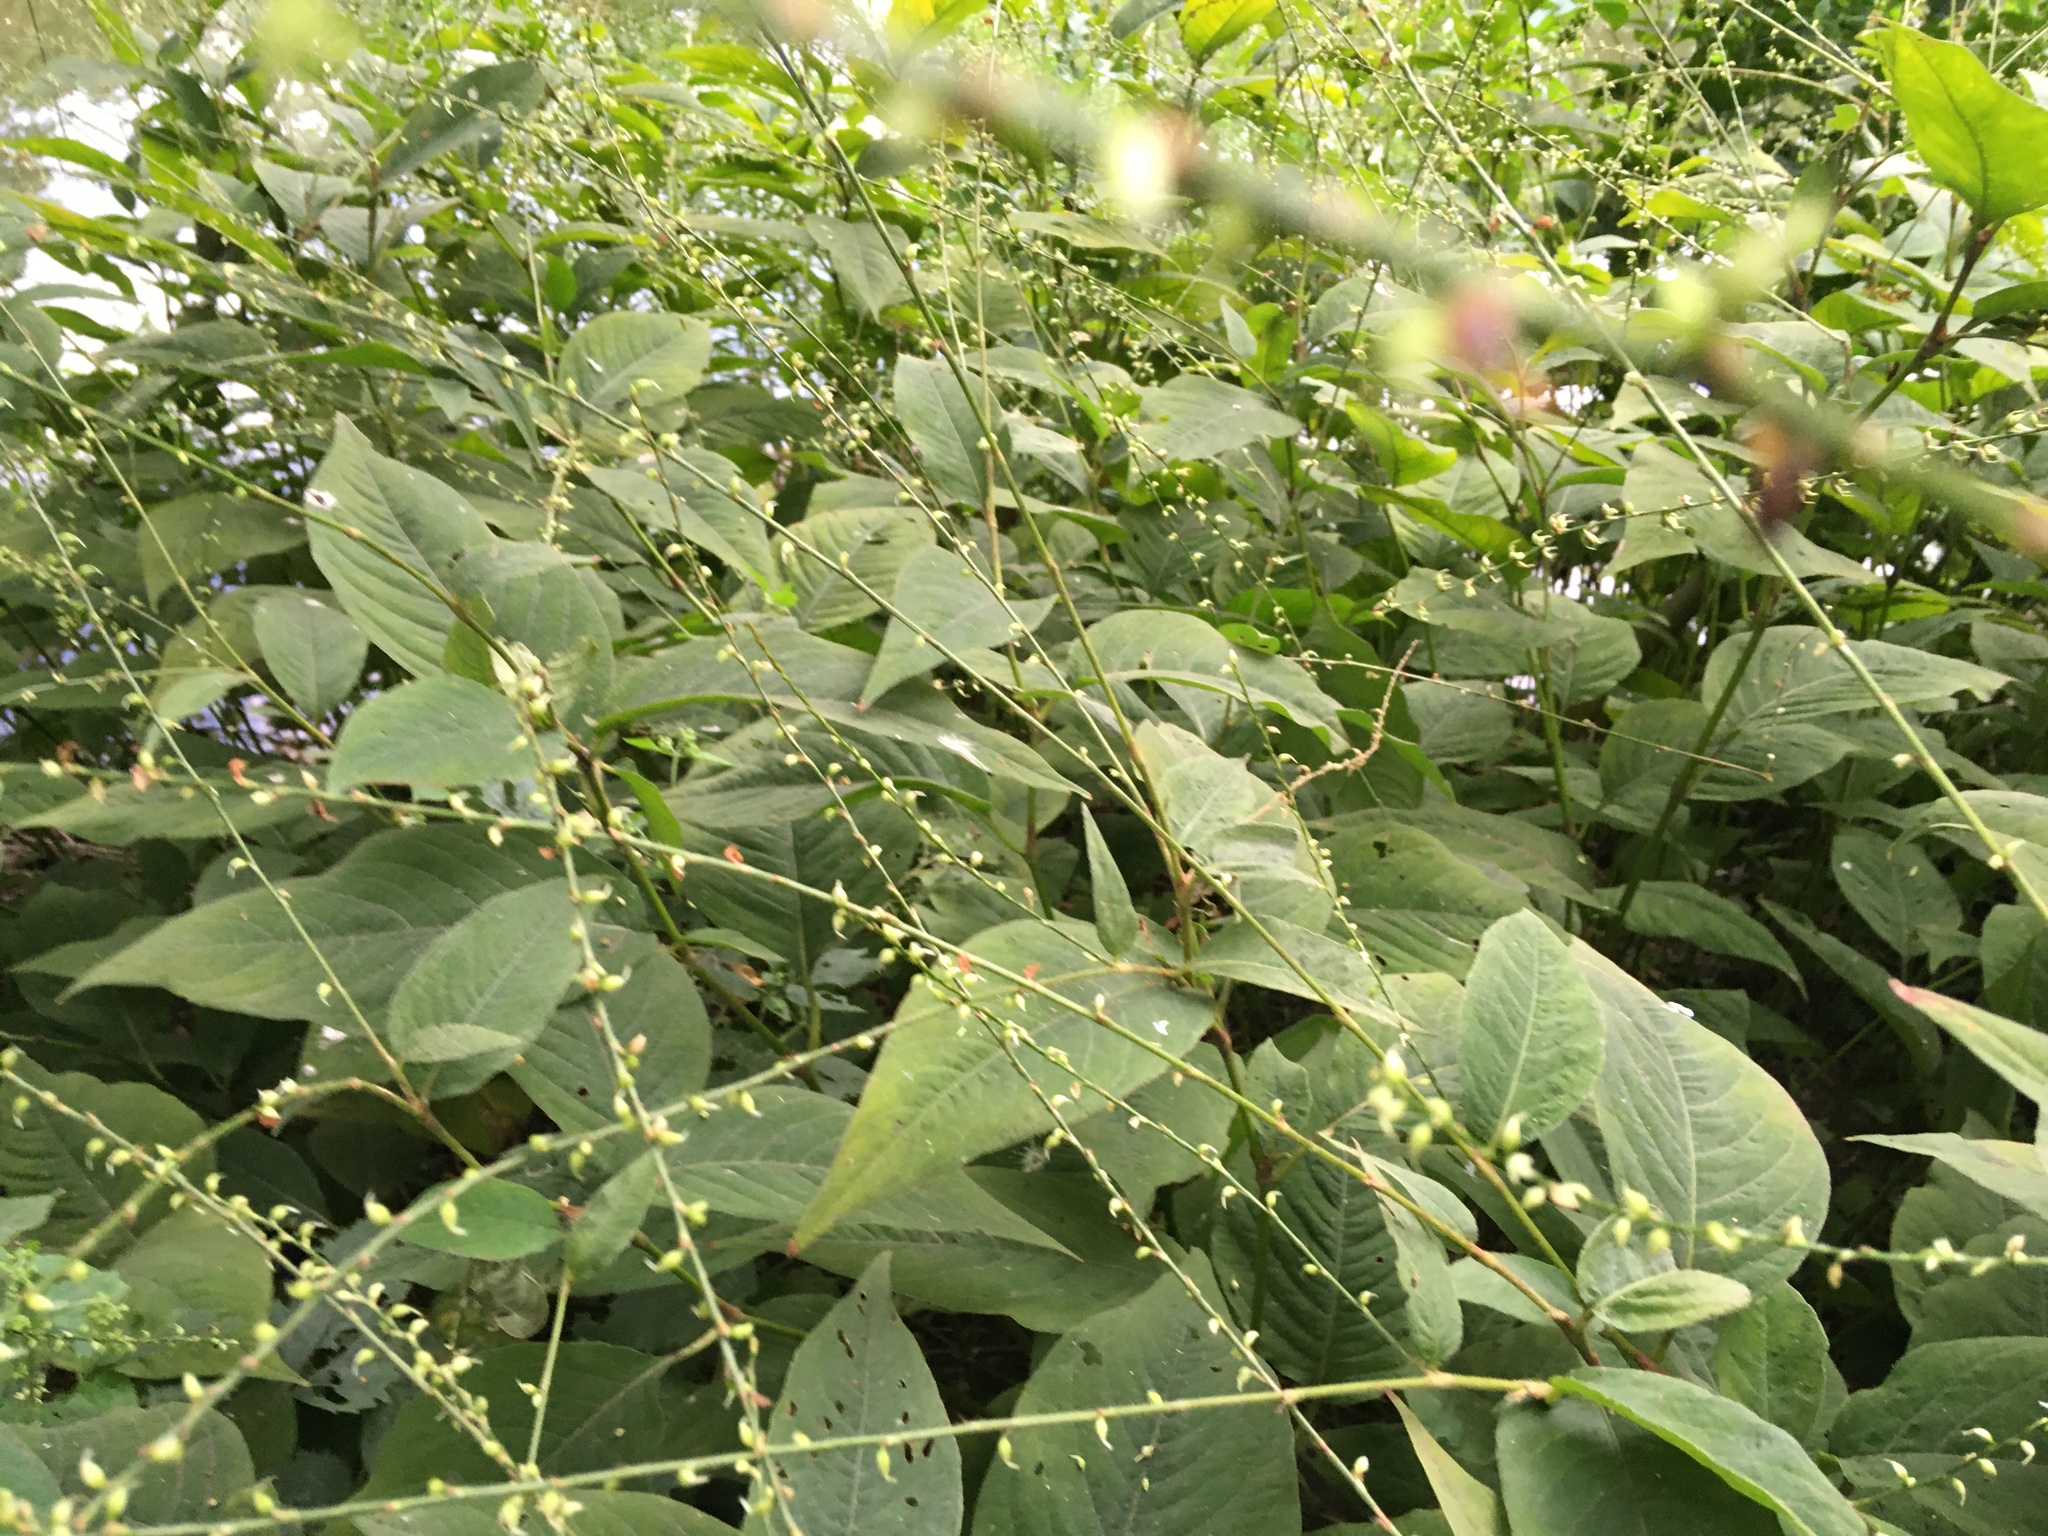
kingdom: Plantae
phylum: Tracheophyta
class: Magnoliopsida
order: Caryophyllales
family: Polygonaceae
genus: Persicaria
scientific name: Persicaria virginiana
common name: Jumpseed
